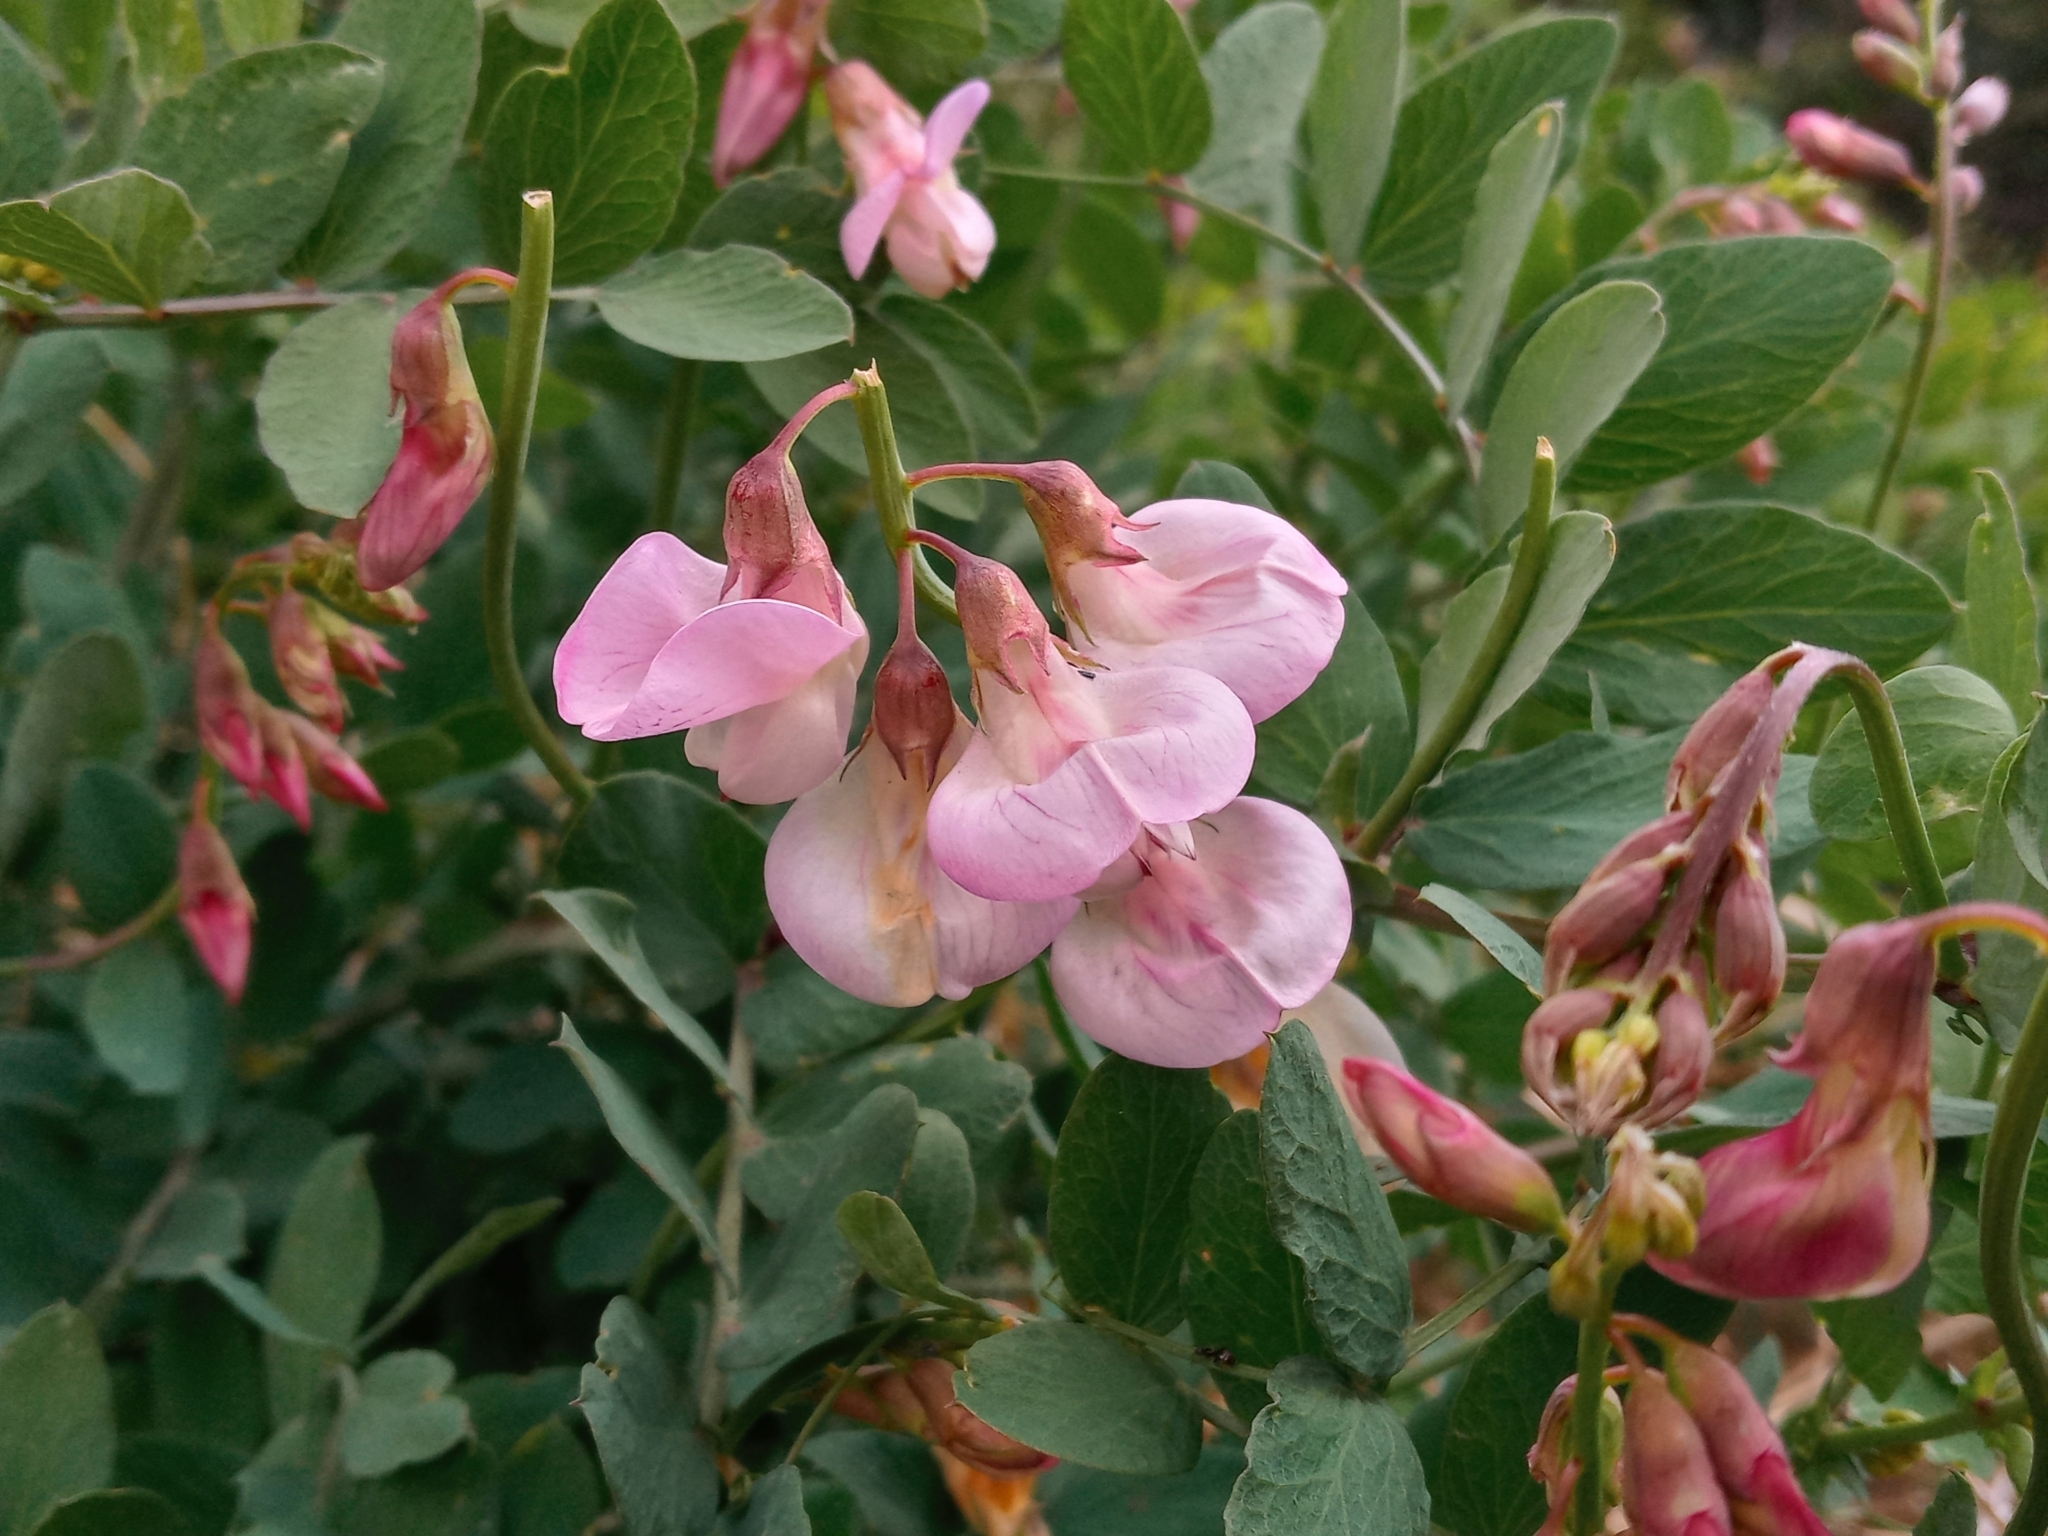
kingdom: Plantae
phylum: Tracheophyta
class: Magnoliopsida
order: Fabales
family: Fabaceae
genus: Lathyrus
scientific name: Lathyrus vestitus
